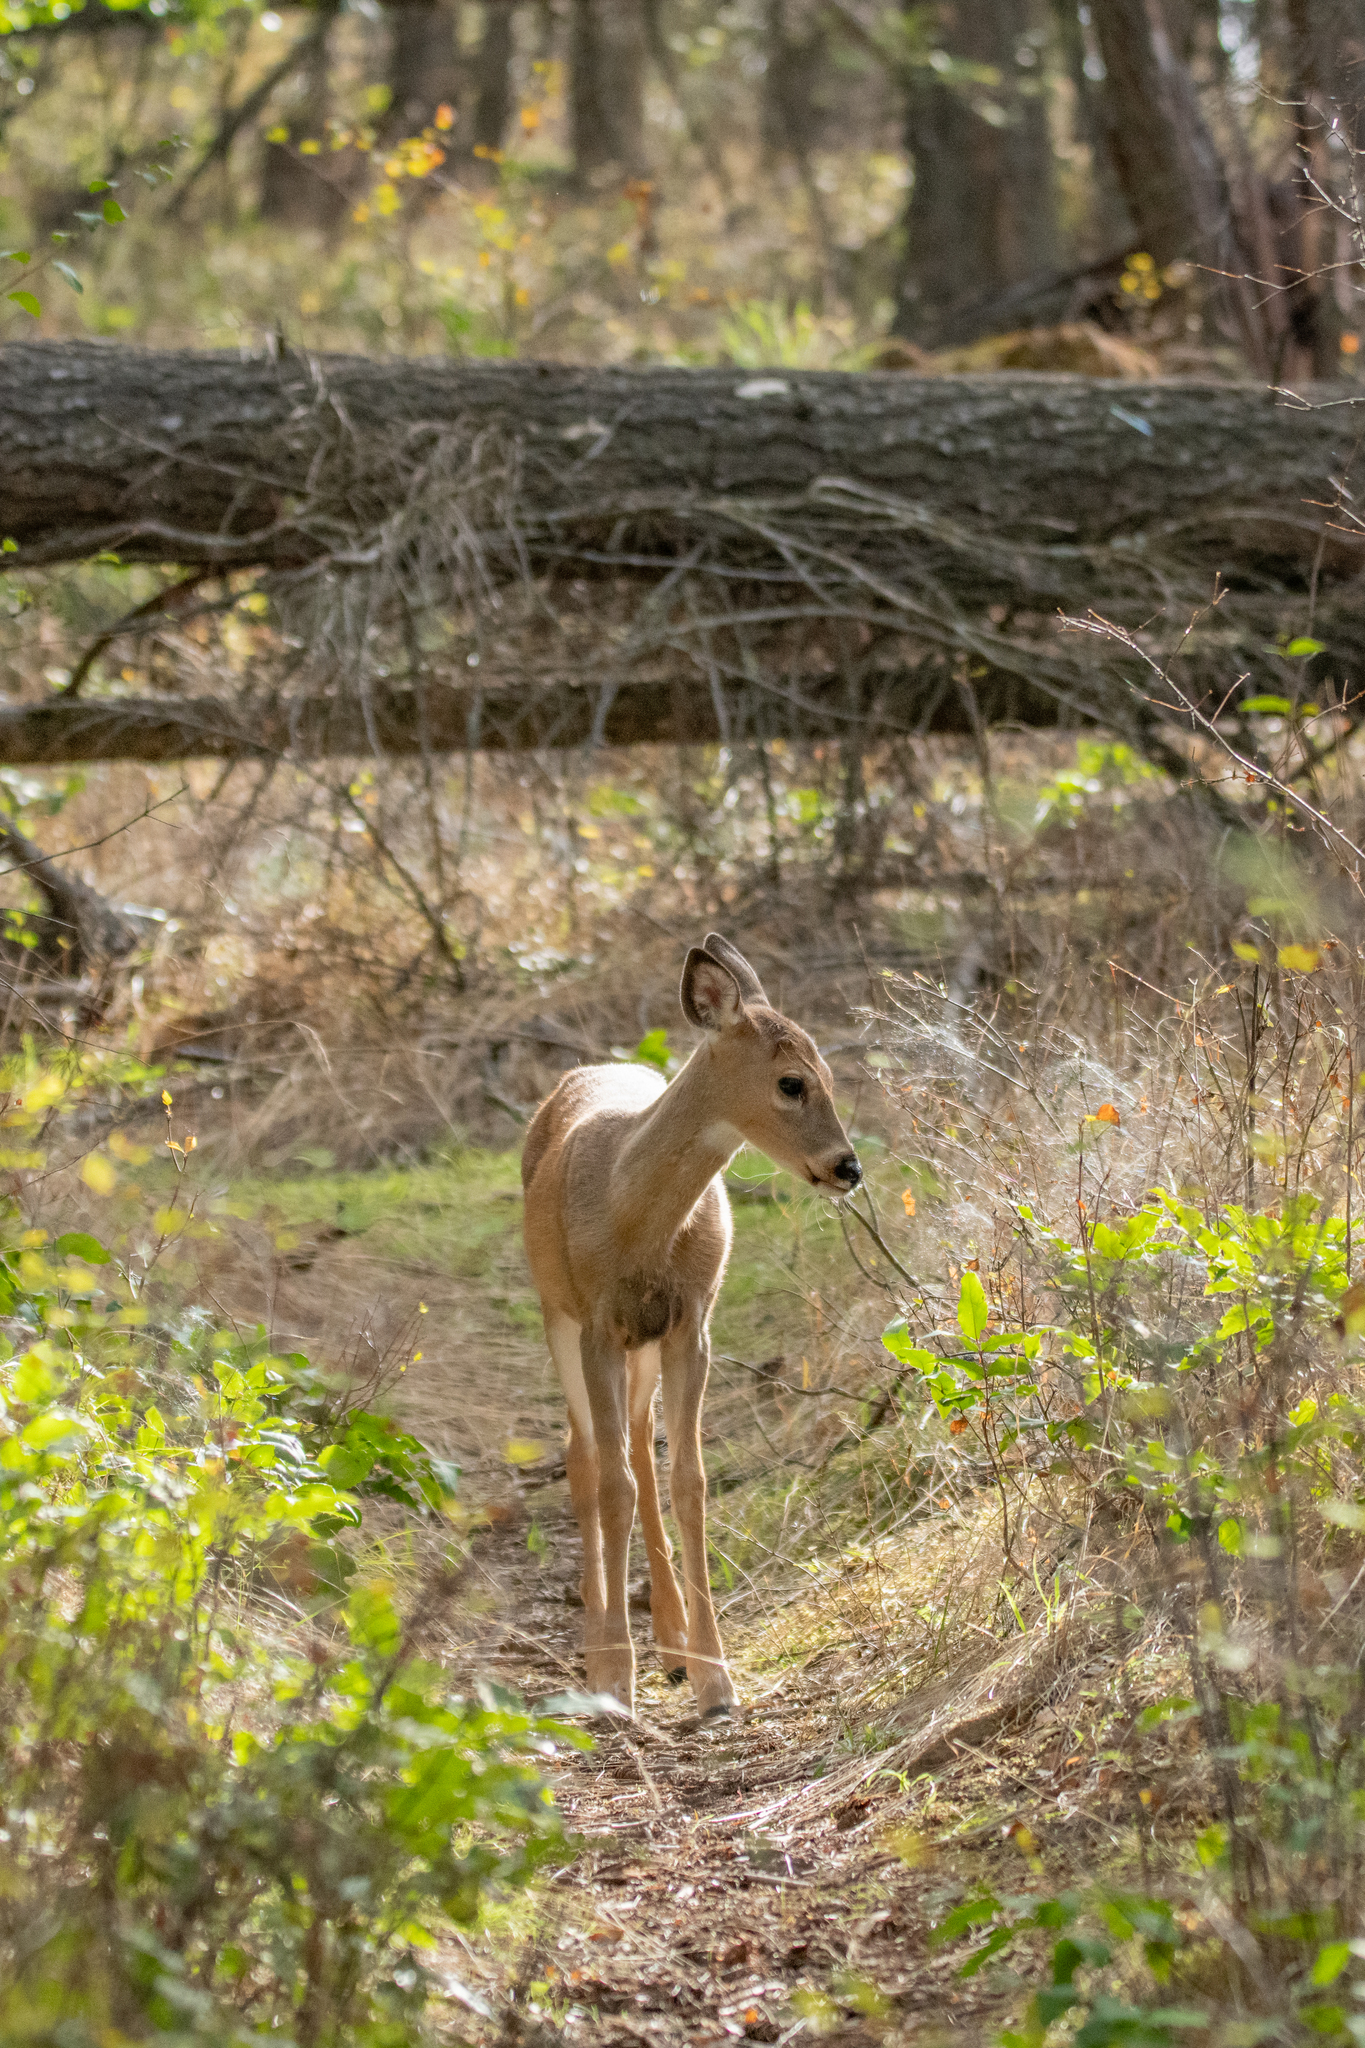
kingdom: Animalia
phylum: Chordata
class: Mammalia
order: Artiodactyla
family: Cervidae
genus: Odocoileus
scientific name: Odocoileus virginianus
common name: White-tailed deer
